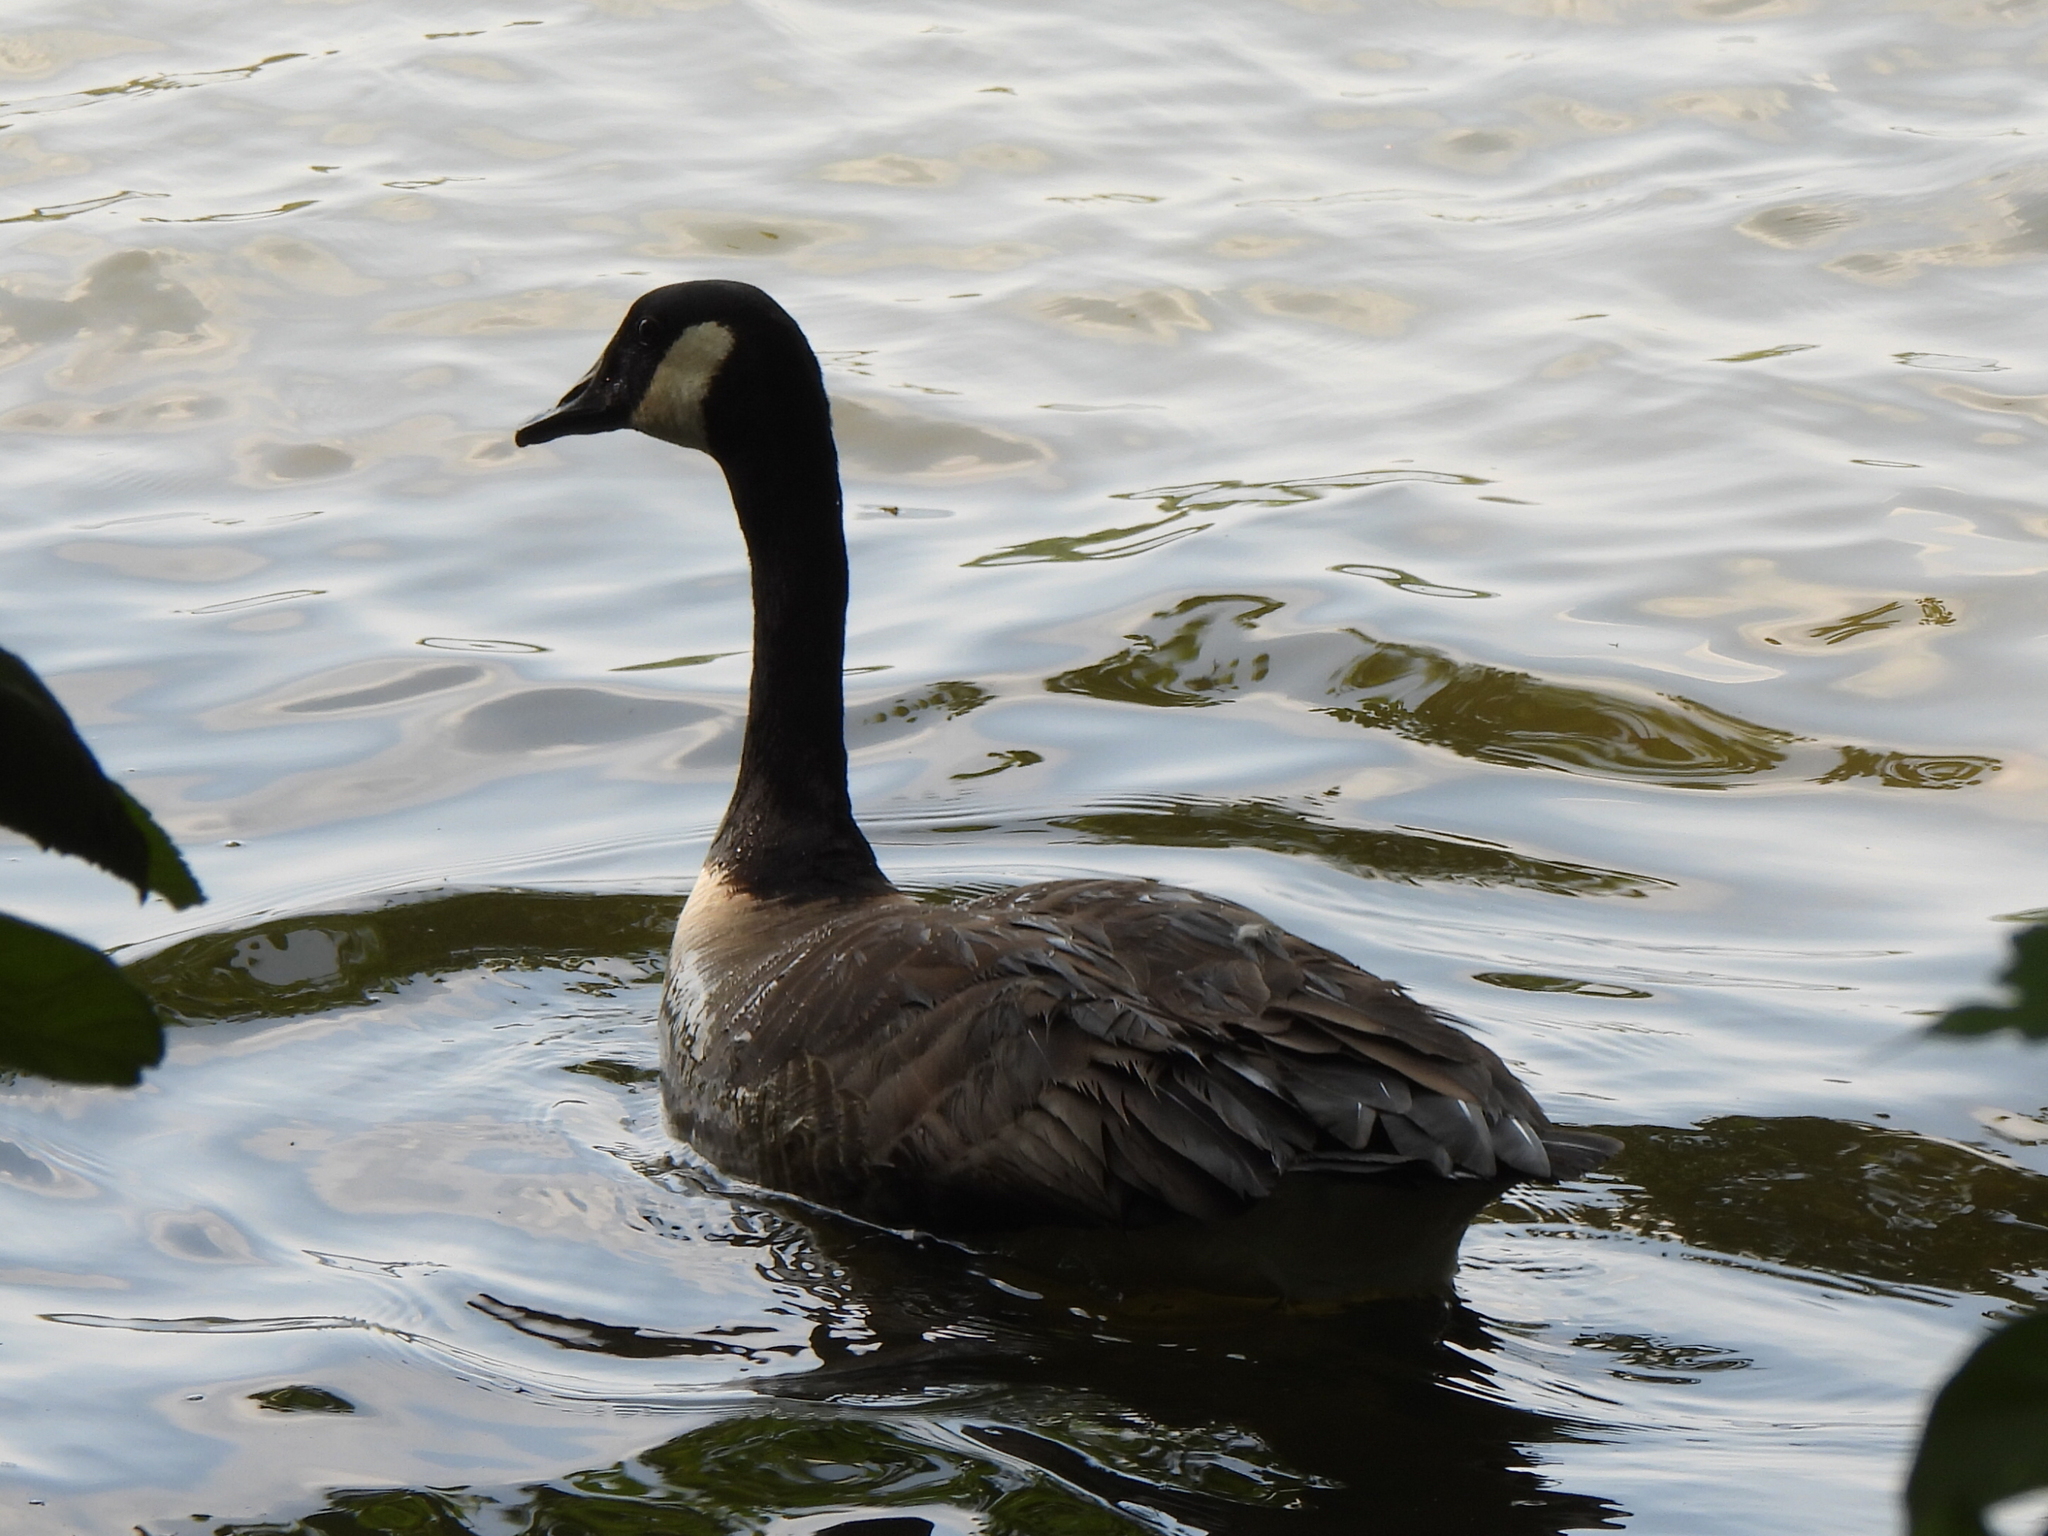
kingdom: Animalia
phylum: Chordata
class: Aves
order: Anseriformes
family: Anatidae
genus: Branta
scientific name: Branta canadensis
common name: Canada goose
